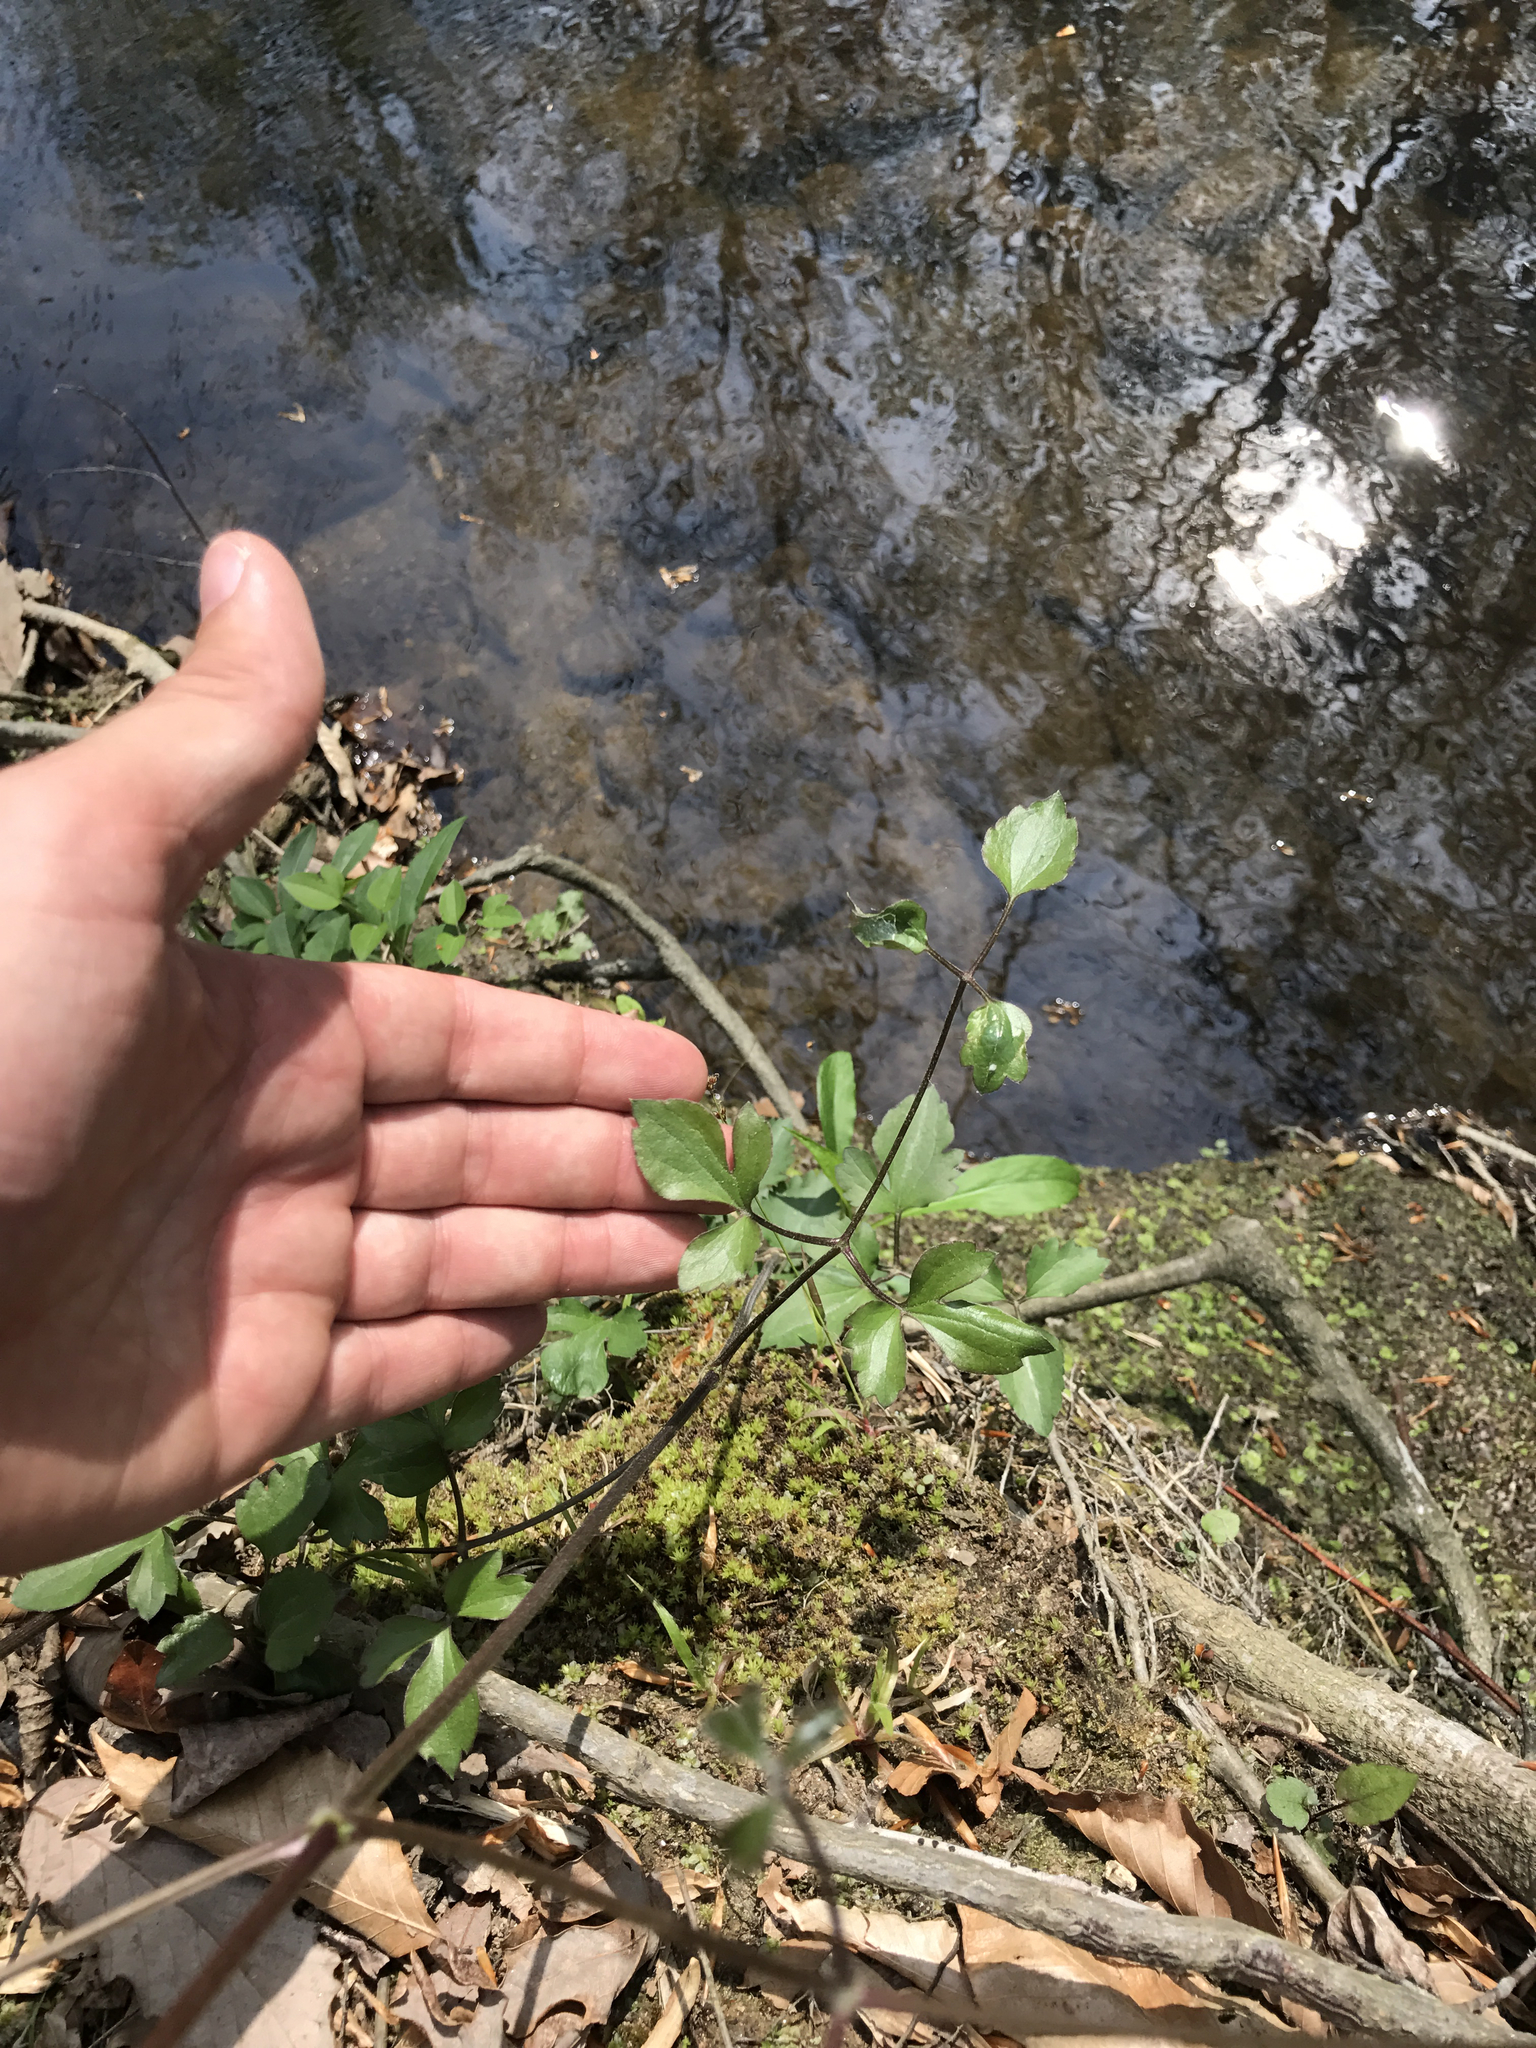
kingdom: Plantae
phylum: Tracheophyta
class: Magnoliopsida
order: Ranunculales
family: Ranunculaceae
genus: Clematis
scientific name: Clematis terniflora
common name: Sweet autumn clematis
